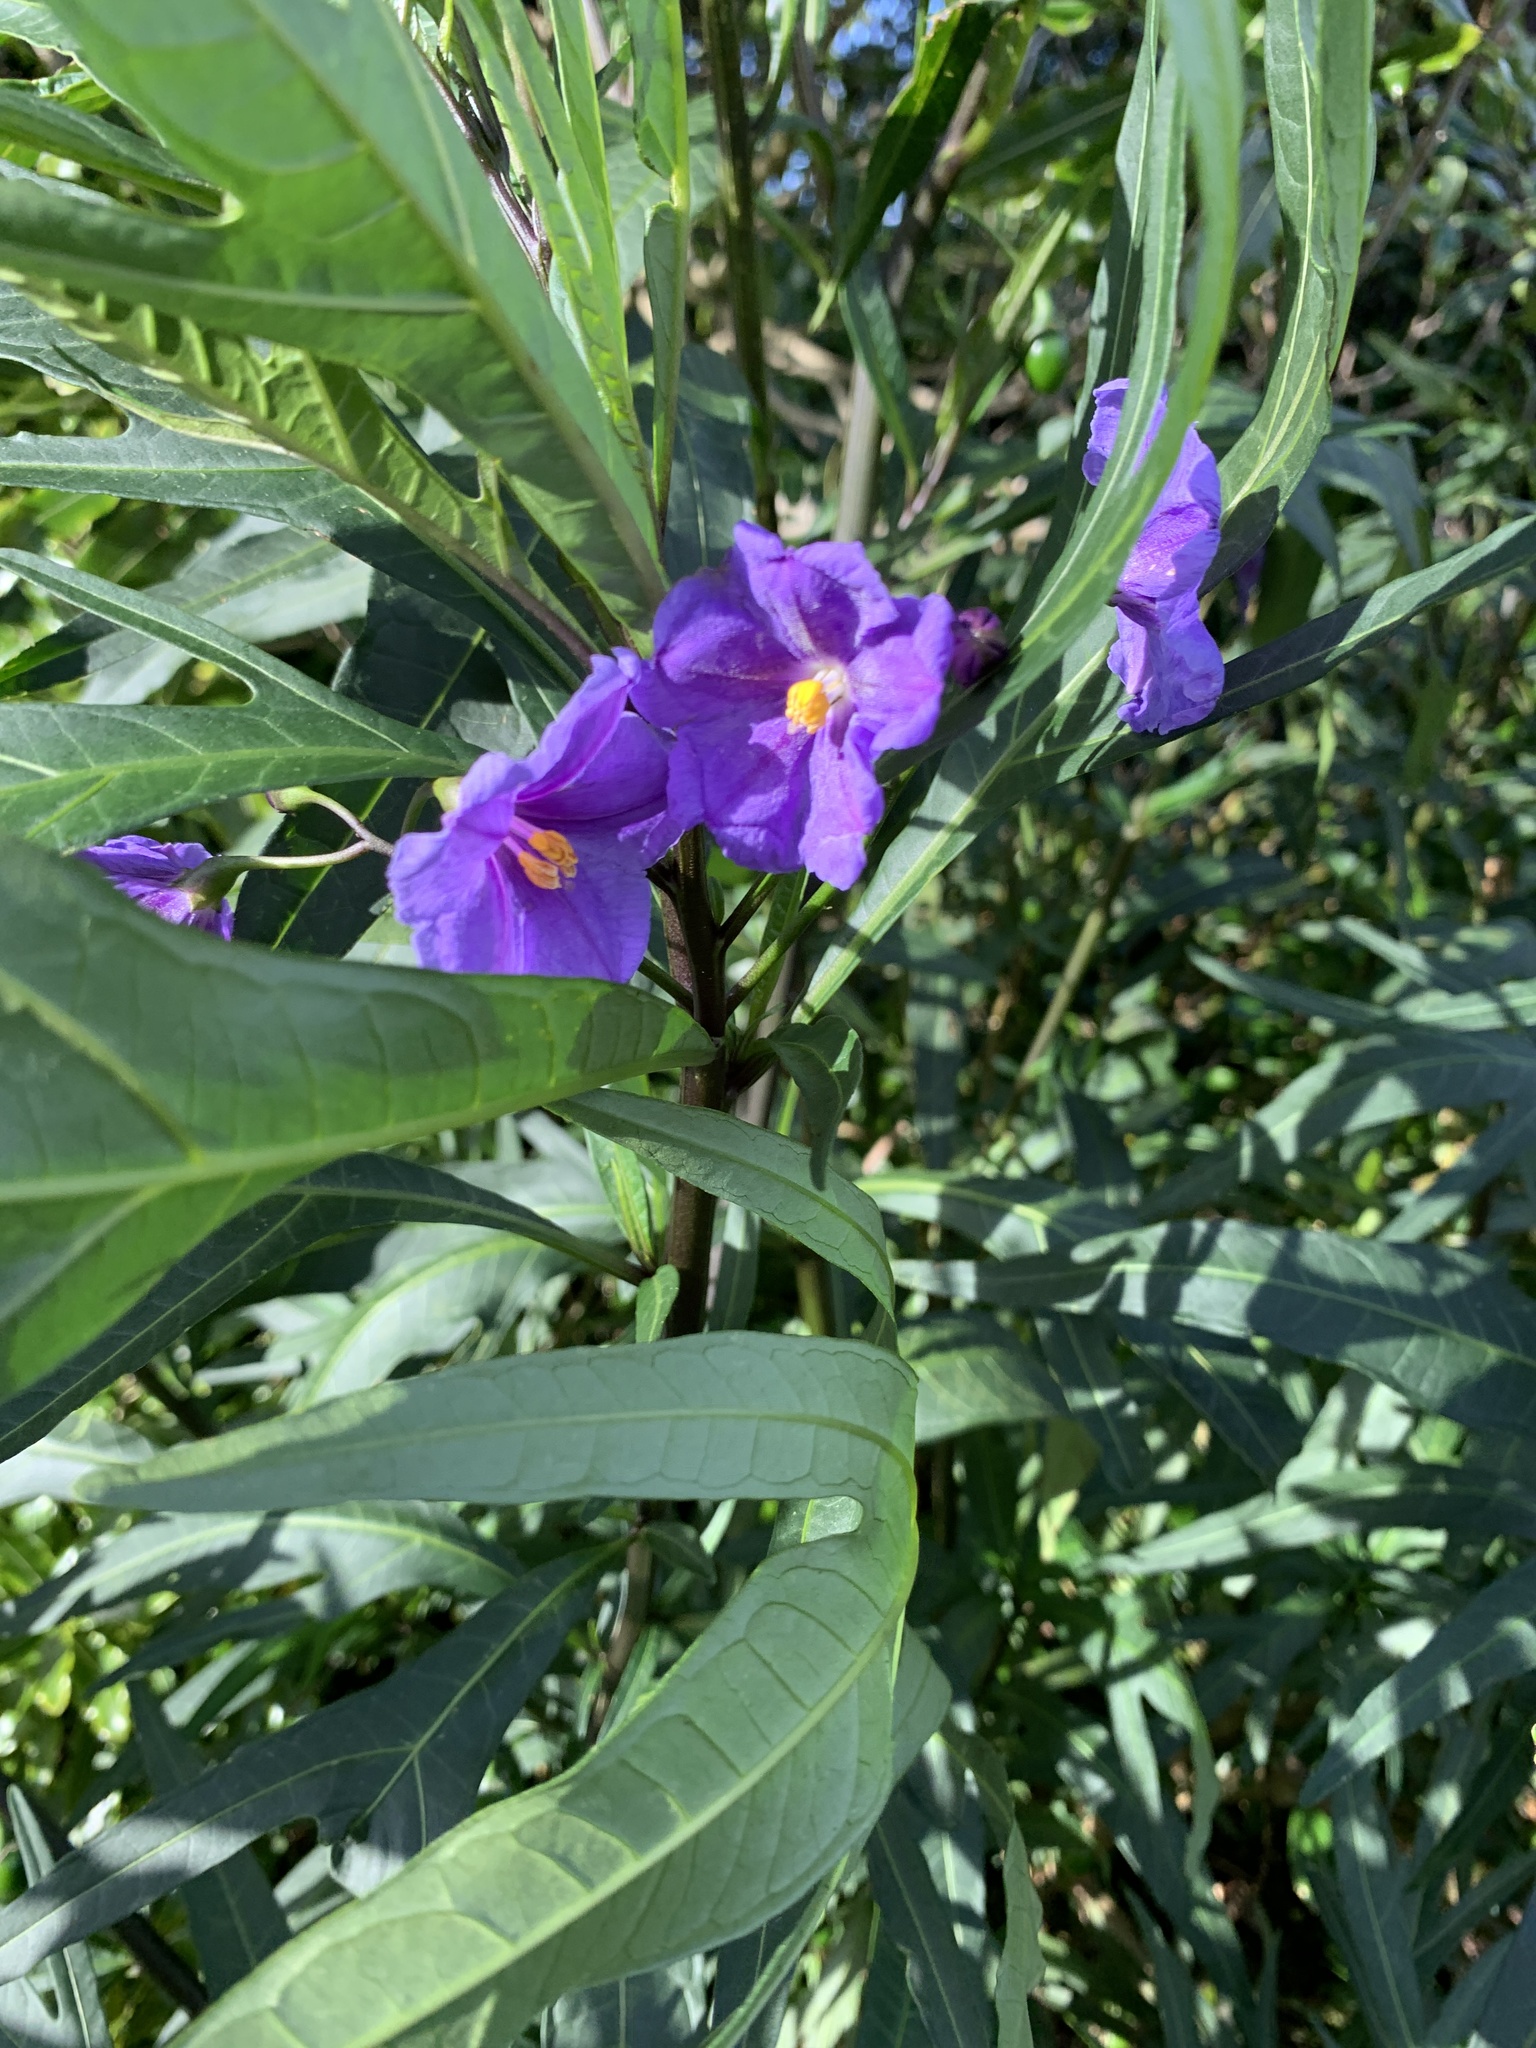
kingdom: Plantae
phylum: Tracheophyta
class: Magnoliopsida
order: Solanales
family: Solanaceae
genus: Solanum
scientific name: Solanum laciniatum
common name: Kangaroo-apple
